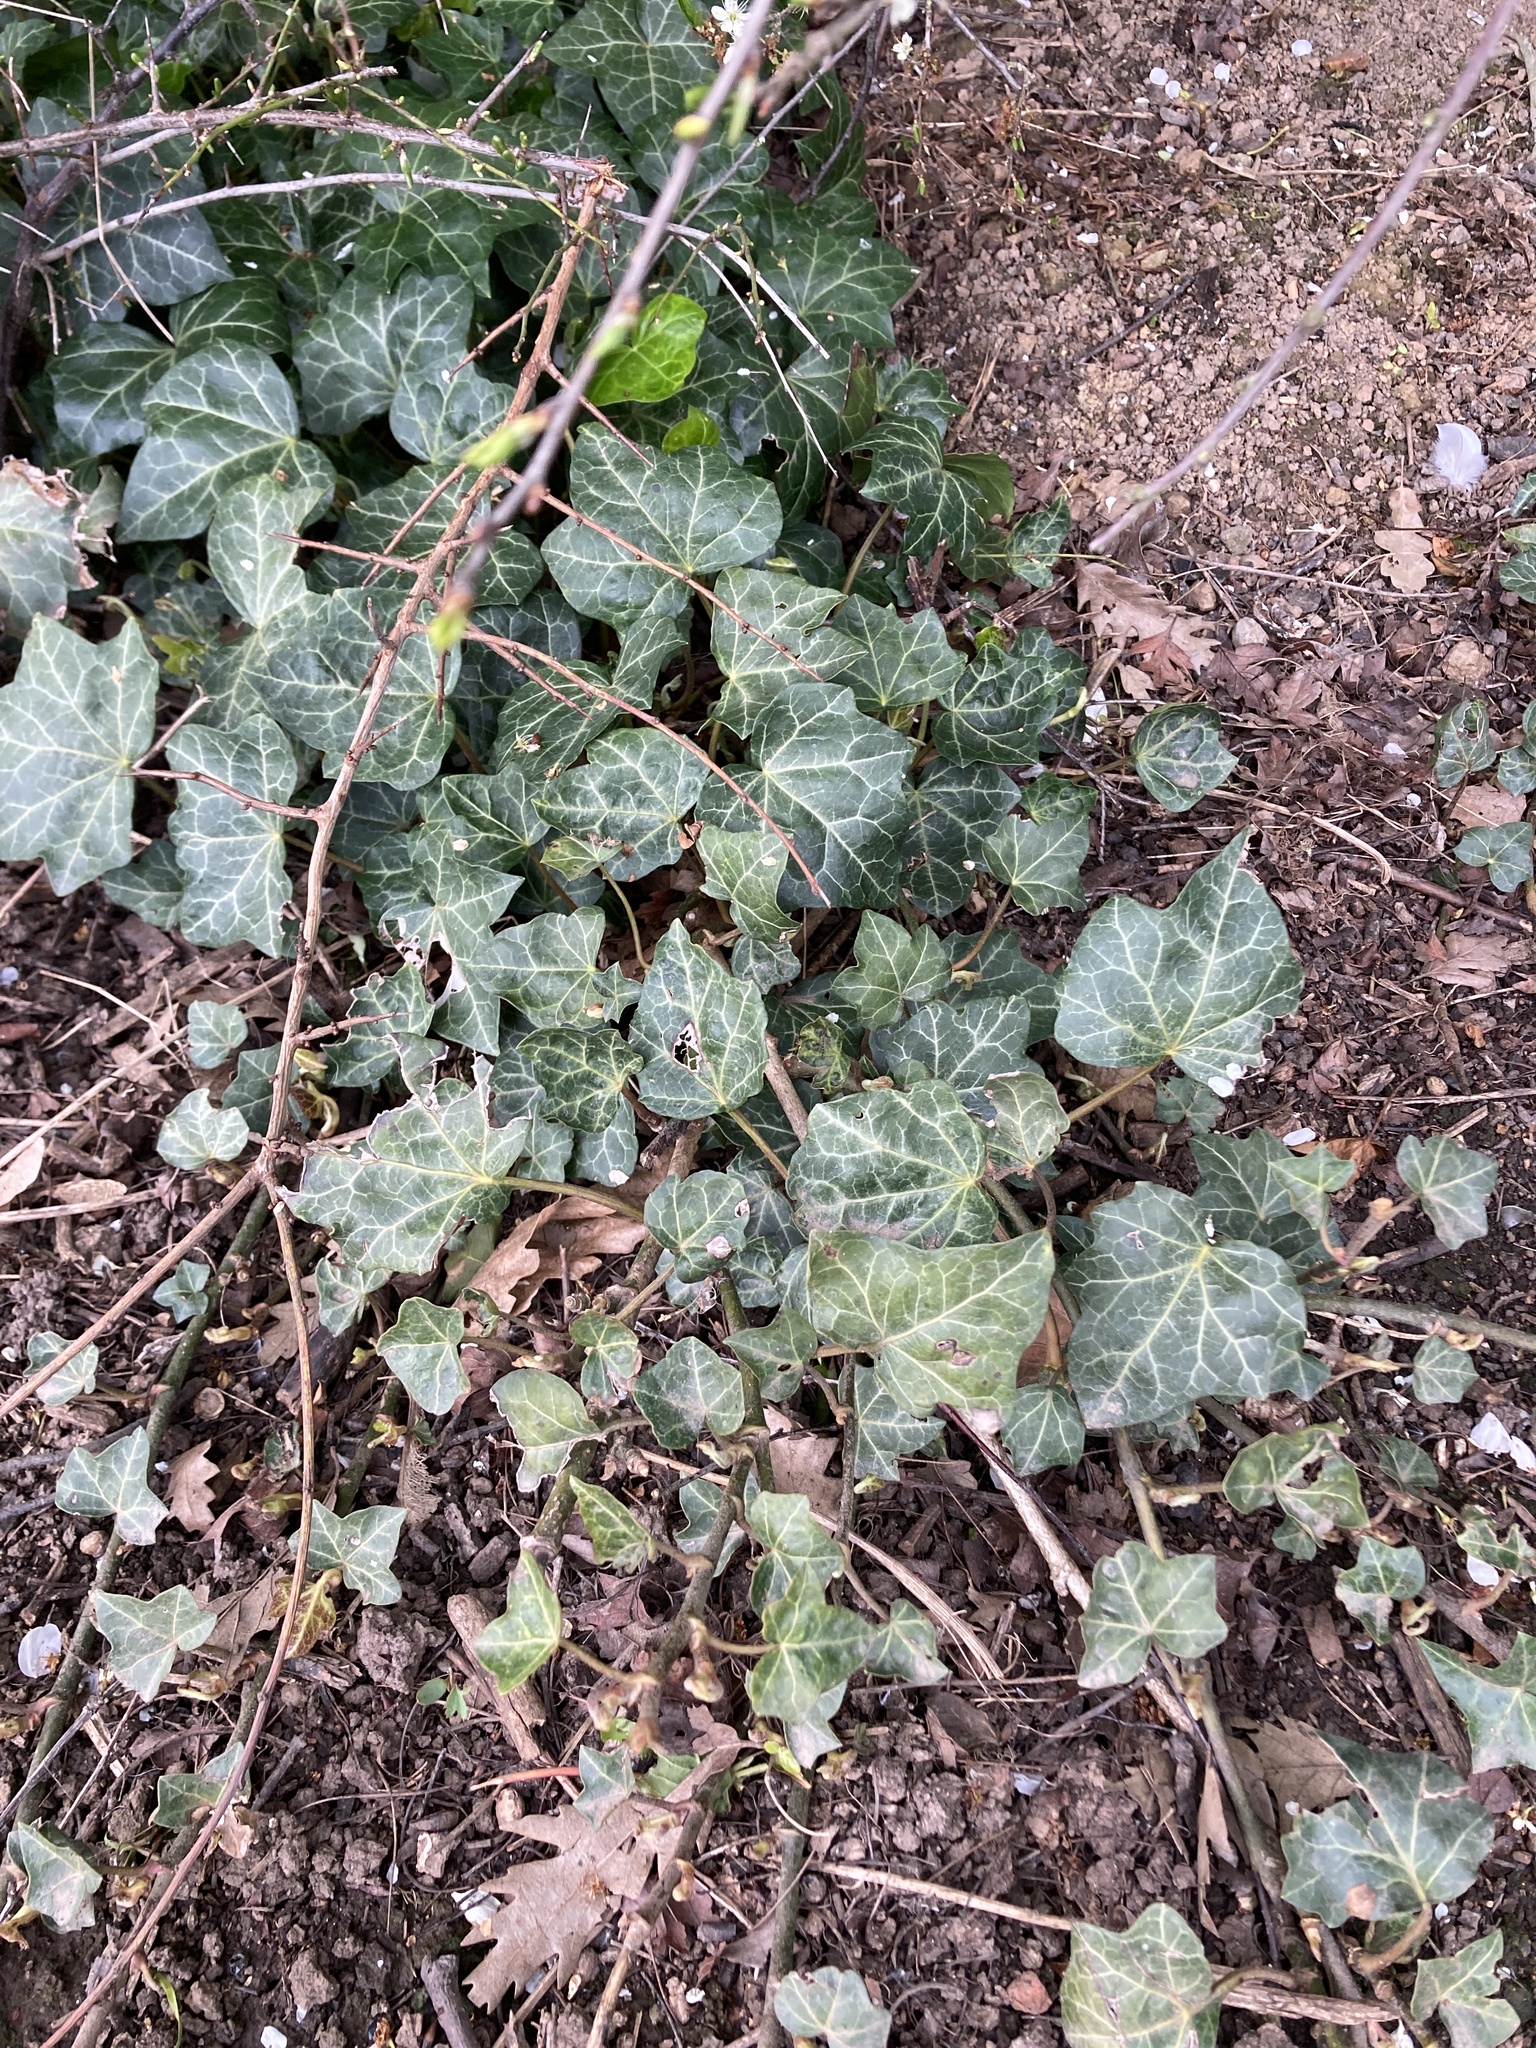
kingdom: Plantae
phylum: Tracheophyta
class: Magnoliopsida
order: Apiales
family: Araliaceae
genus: Hedera
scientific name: Hedera helix
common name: Ivy
